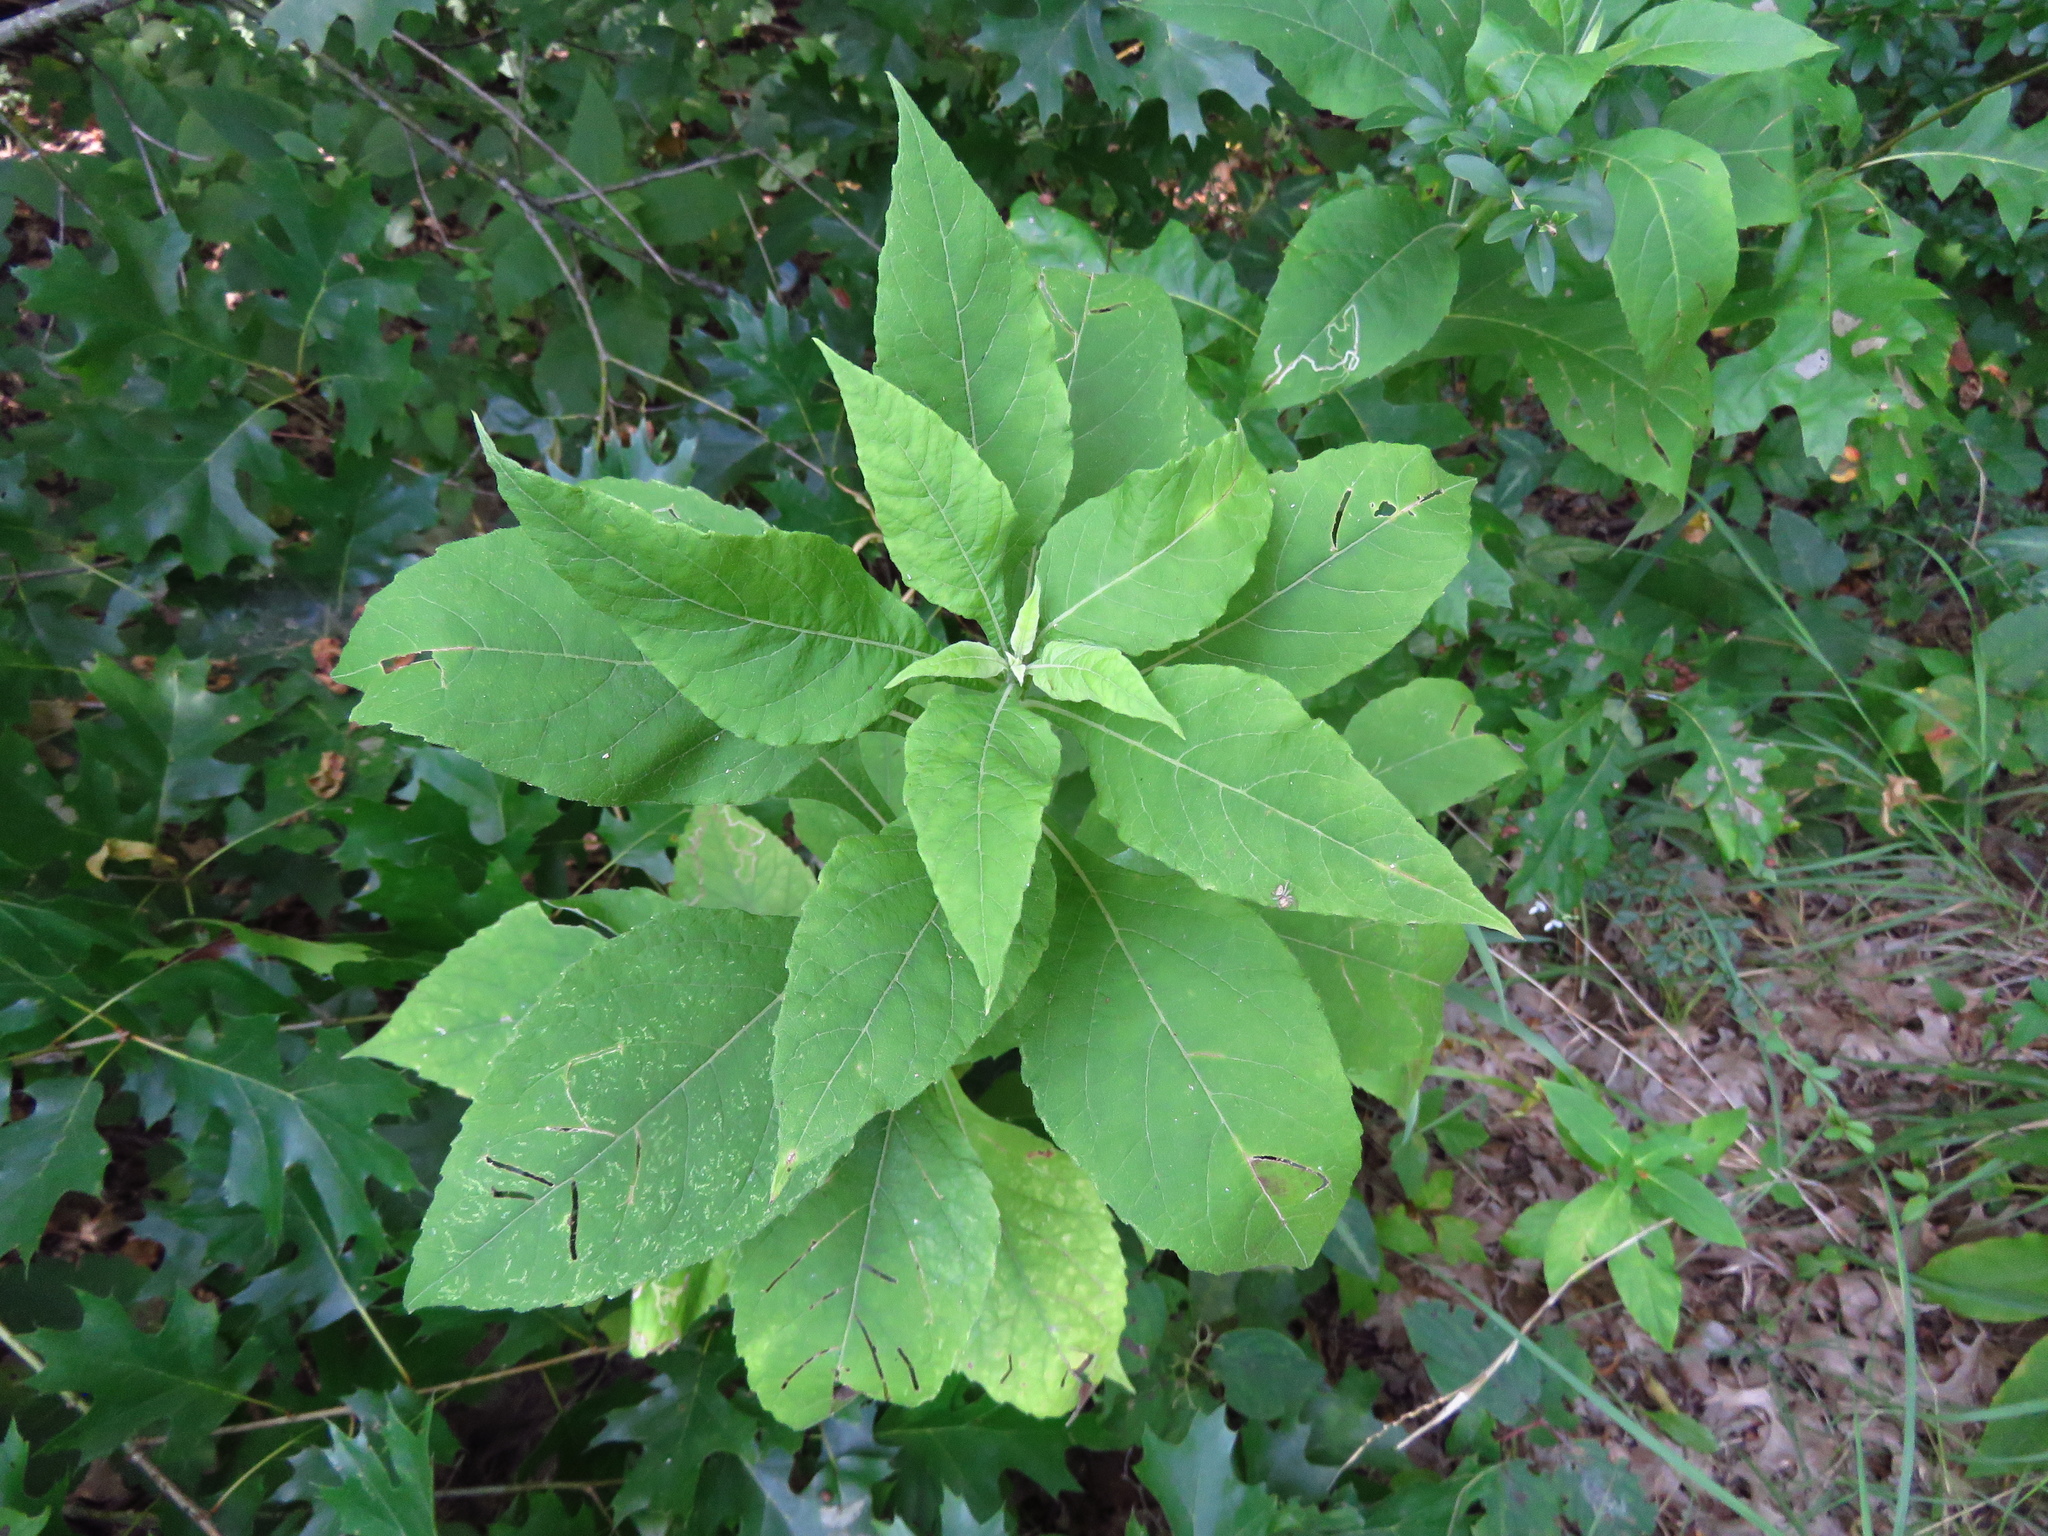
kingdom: Plantae
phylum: Tracheophyta
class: Magnoliopsida
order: Asterales
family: Asteraceae
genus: Verbesina
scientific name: Verbesina virginica
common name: Frostweed
